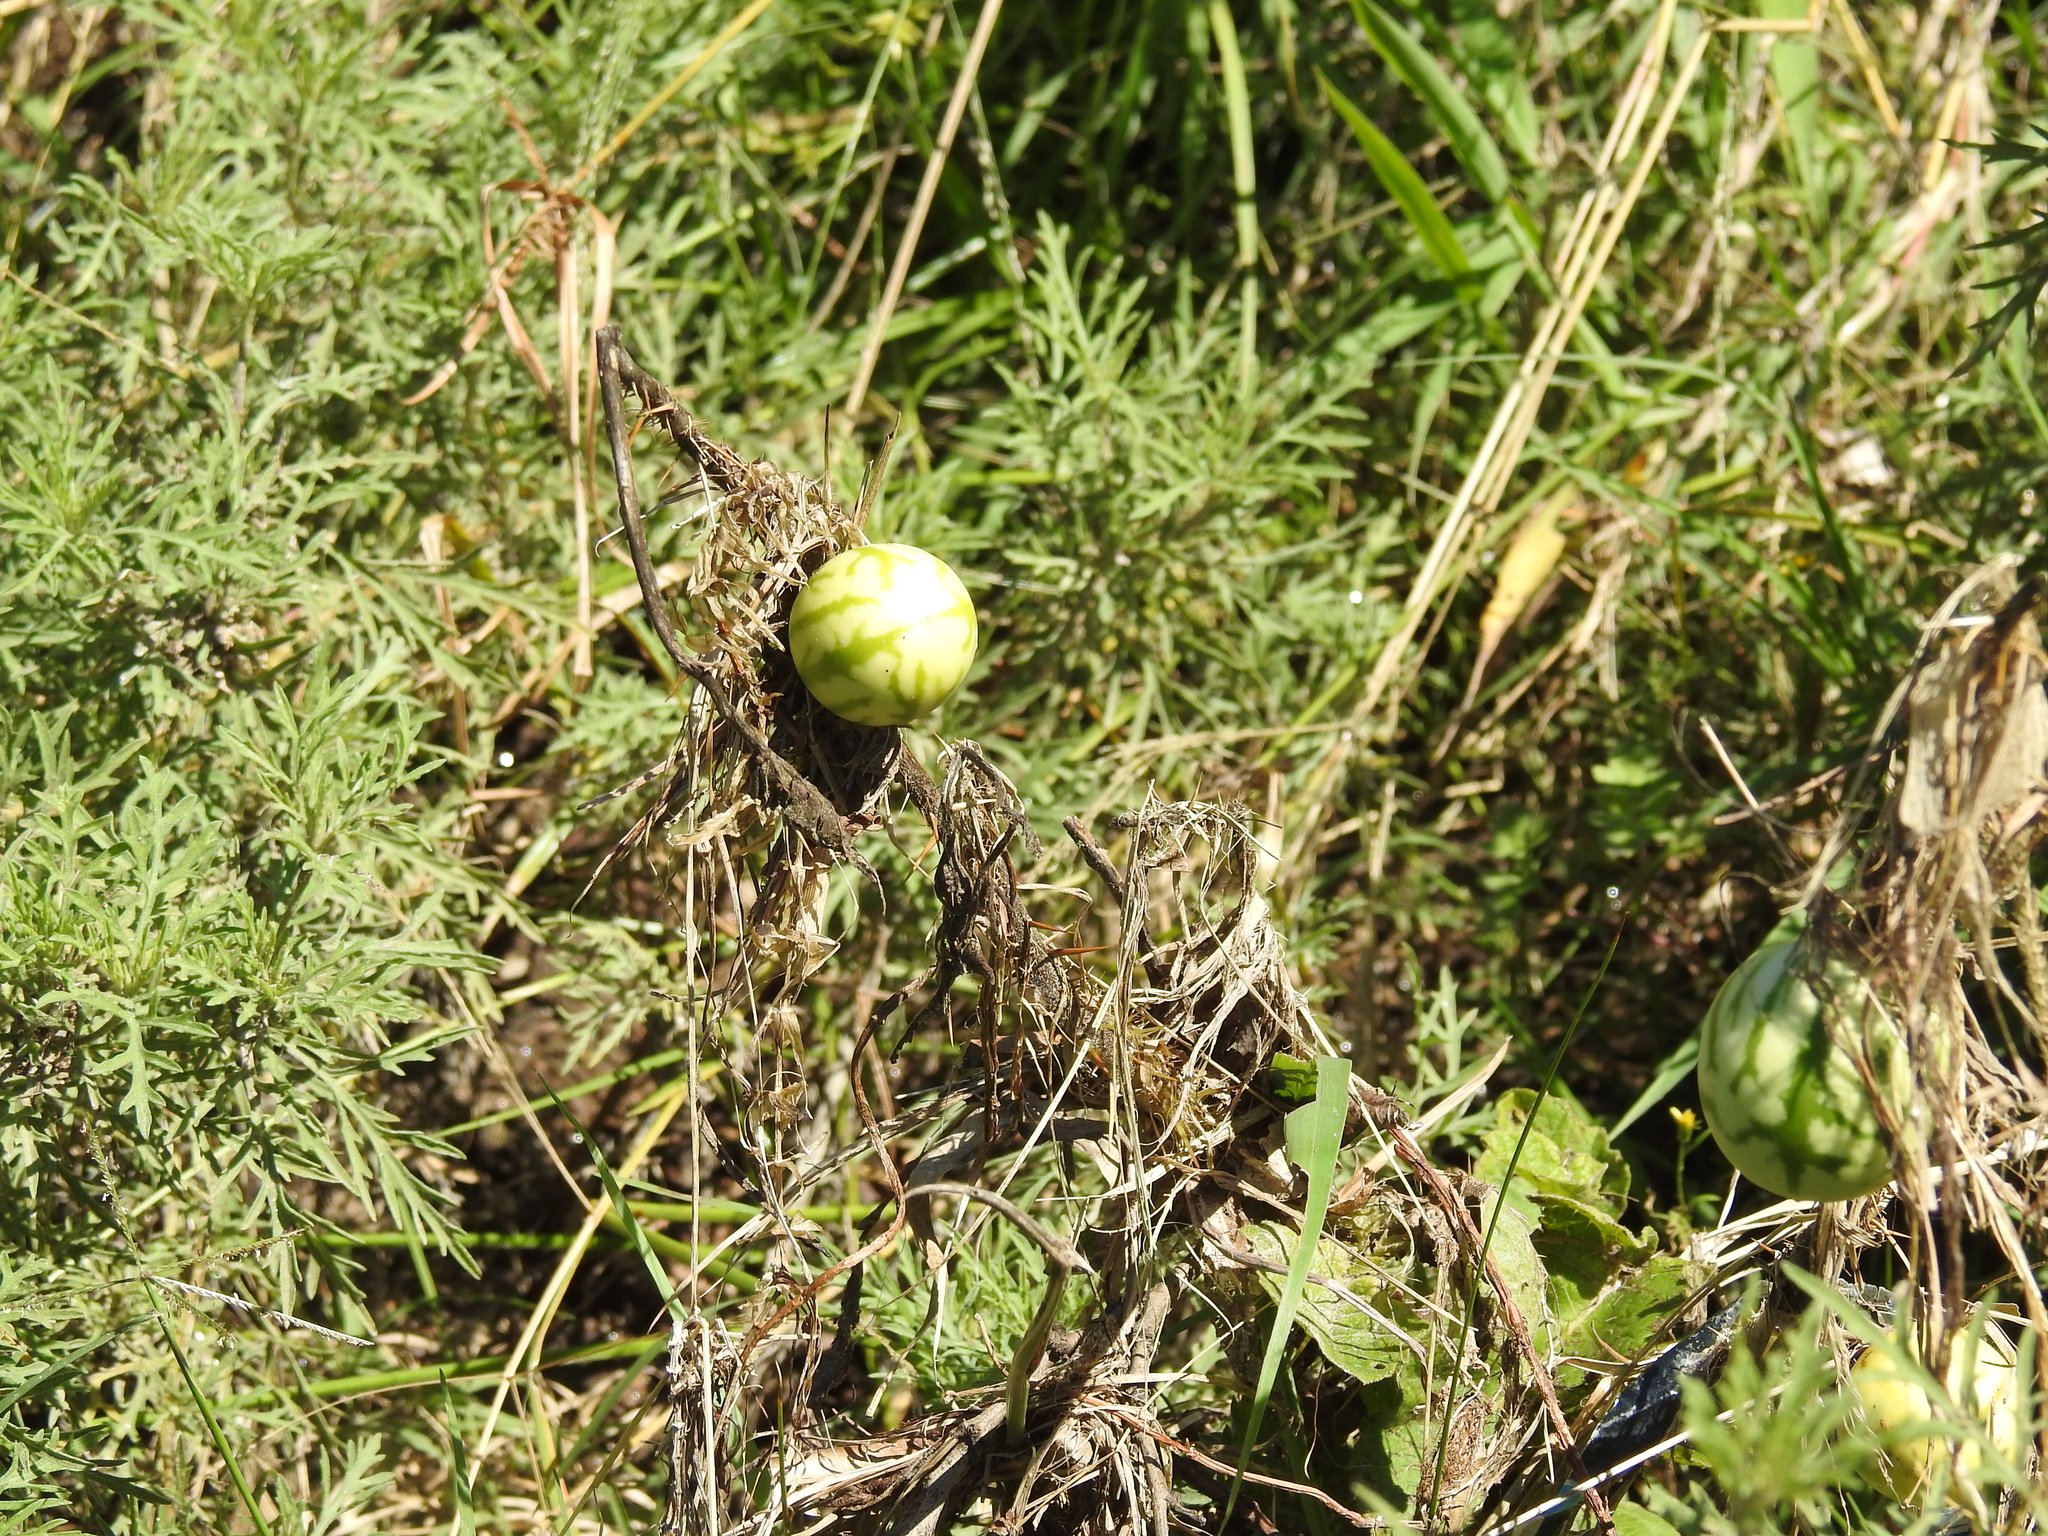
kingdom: Plantae
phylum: Tracheophyta
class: Magnoliopsida
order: Solanales
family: Solanaceae
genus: Solanum
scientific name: Solanum palinacanthum
